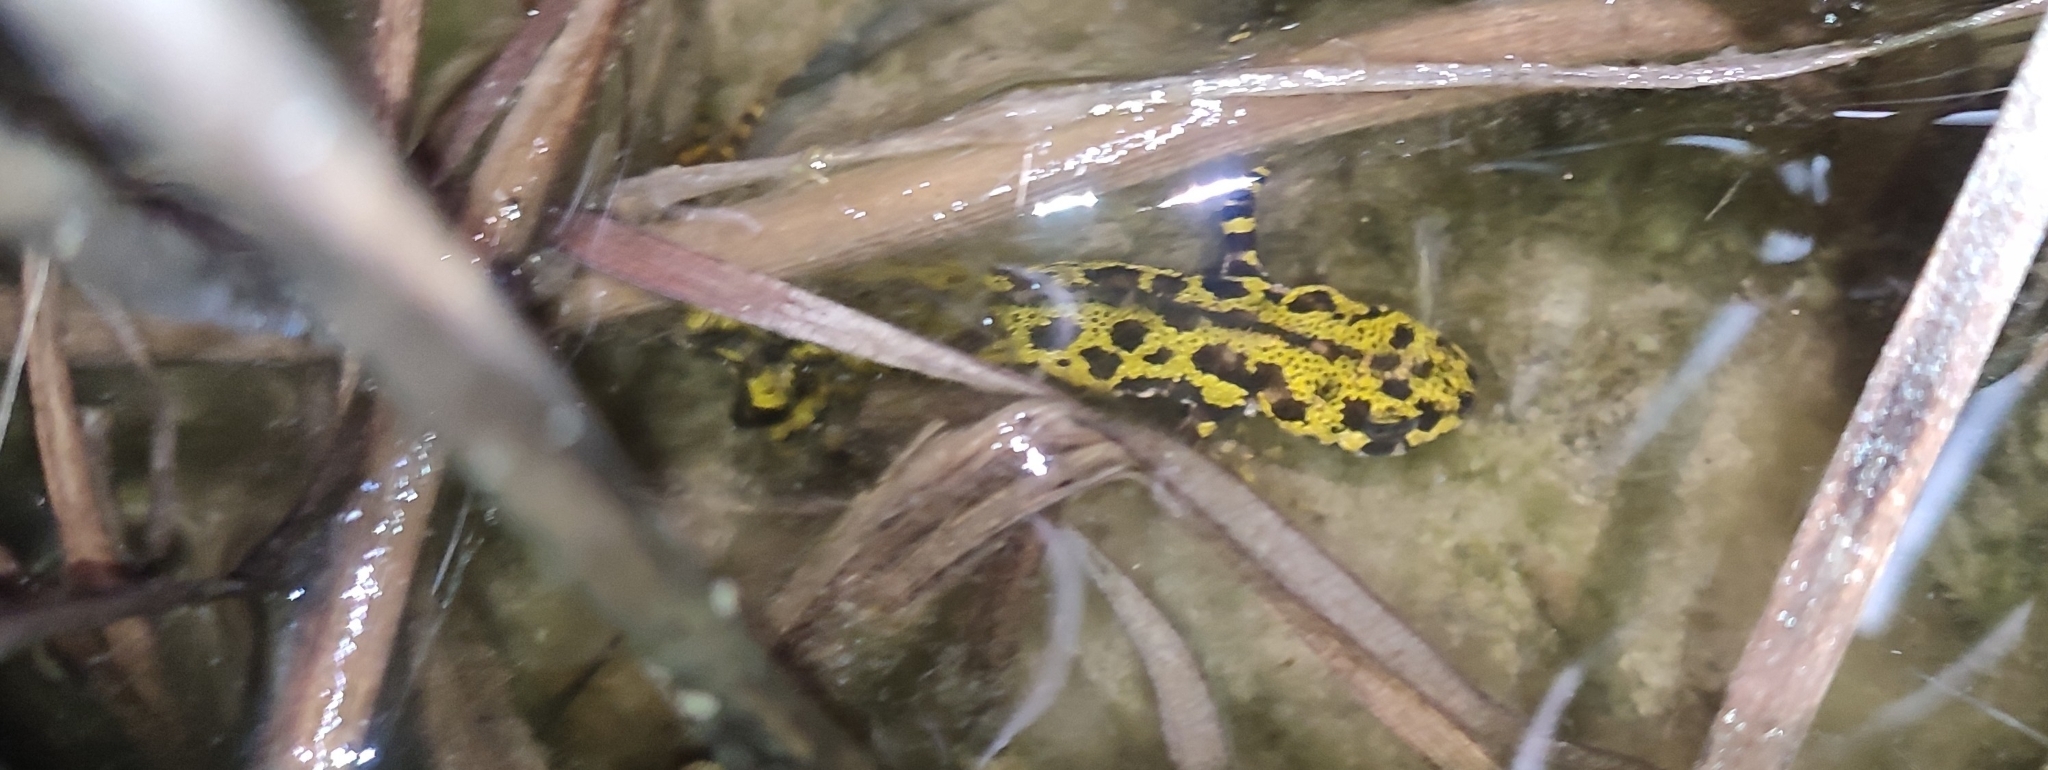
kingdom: Animalia
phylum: Chordata
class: Amphibia
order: Caudata
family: Salamandridae
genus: Triturus
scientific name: Triturus marmoratus
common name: Marbled newt
